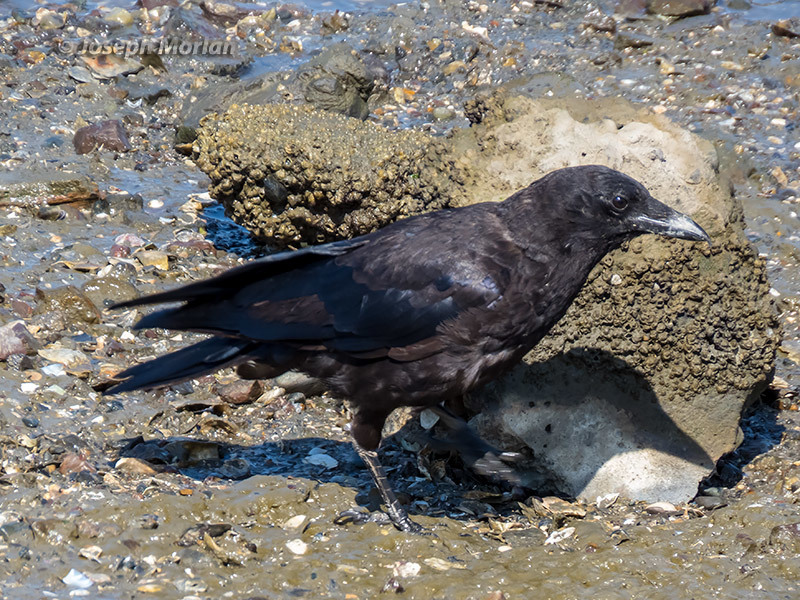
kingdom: Animalia
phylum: Chordata
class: Aves
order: Passeriformes
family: Corvidae
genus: Corvus
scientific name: Corvus brachyrhynchos
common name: American crow
